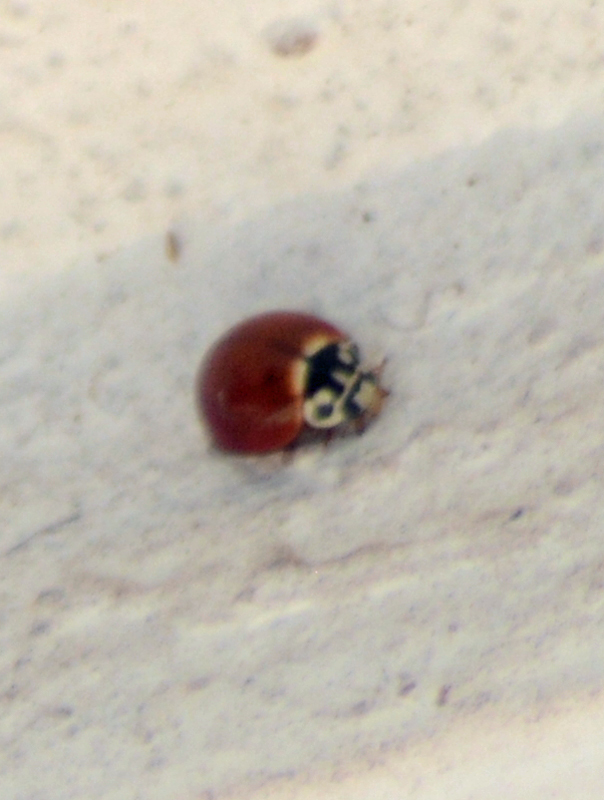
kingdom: Animalia
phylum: Arthropoda
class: Insecta
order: Coleoptera
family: Coccinellidae
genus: Cycloneda
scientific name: Cycloneda sanguinea
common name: Ladybird beetle
